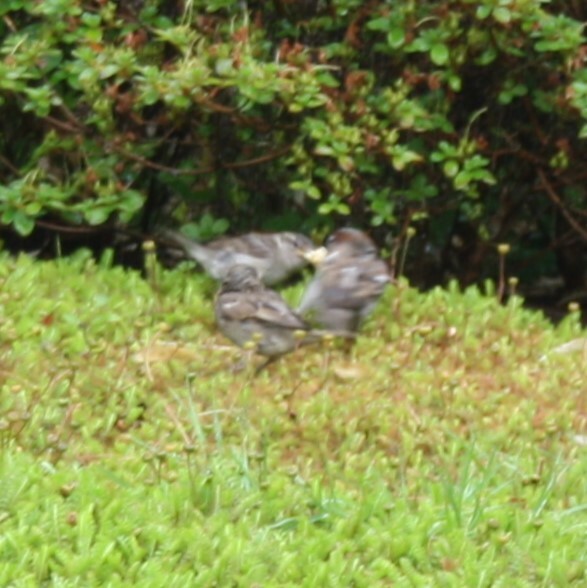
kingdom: Animalia
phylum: Chordata
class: Aves
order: Passeriformes
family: Passeridae
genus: Passer
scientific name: Passer domesticus
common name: House sparrow
